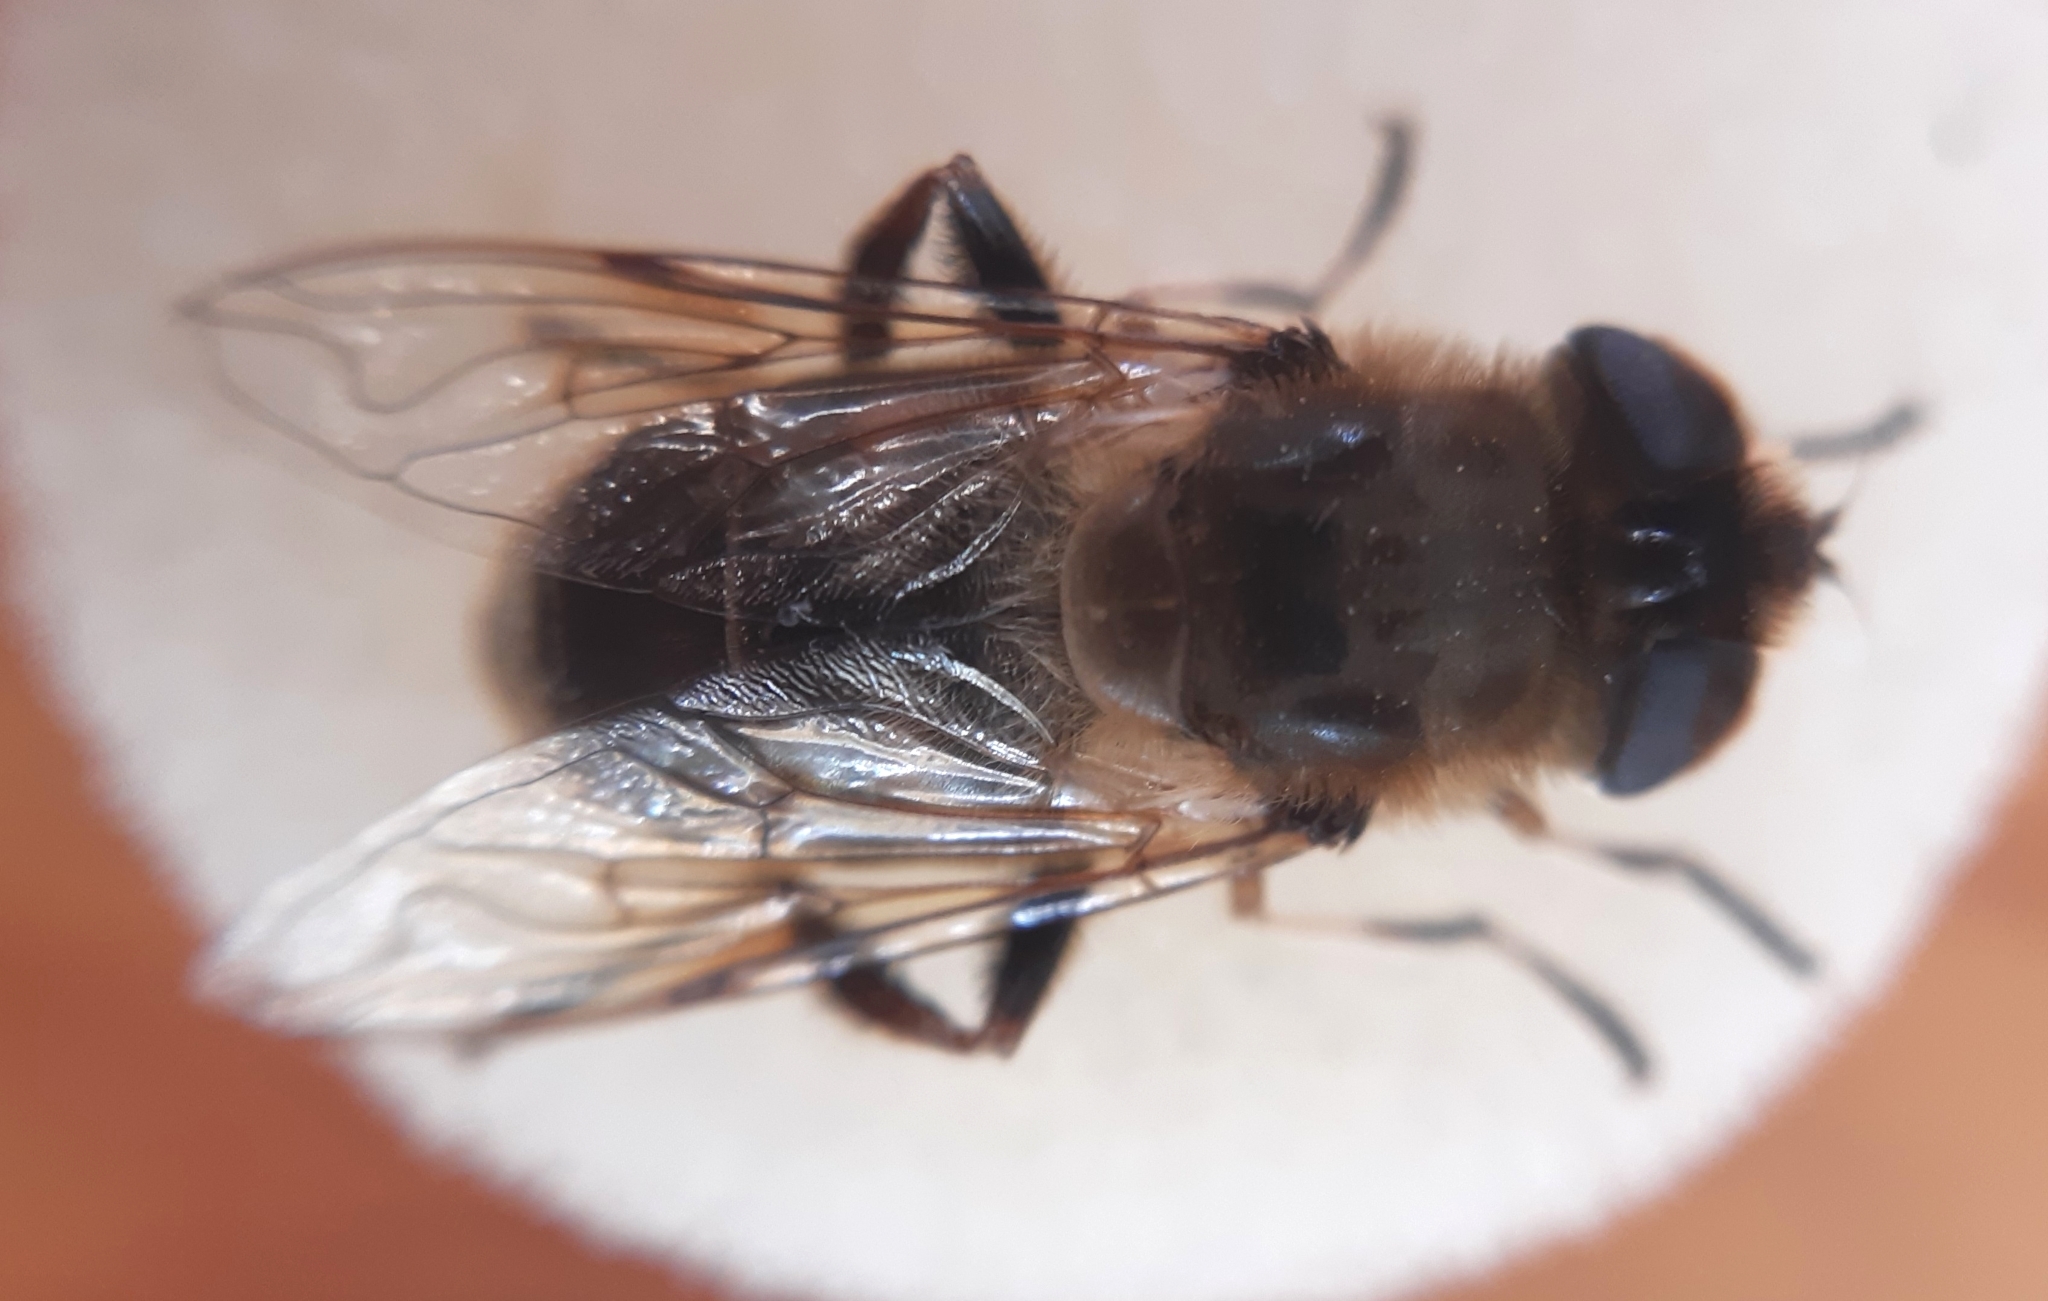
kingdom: Animalia
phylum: Arthropoda
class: Insecta
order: Diptera
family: Syrphidae
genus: Eristalis
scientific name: Eristalis tenax
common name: Drone fly
